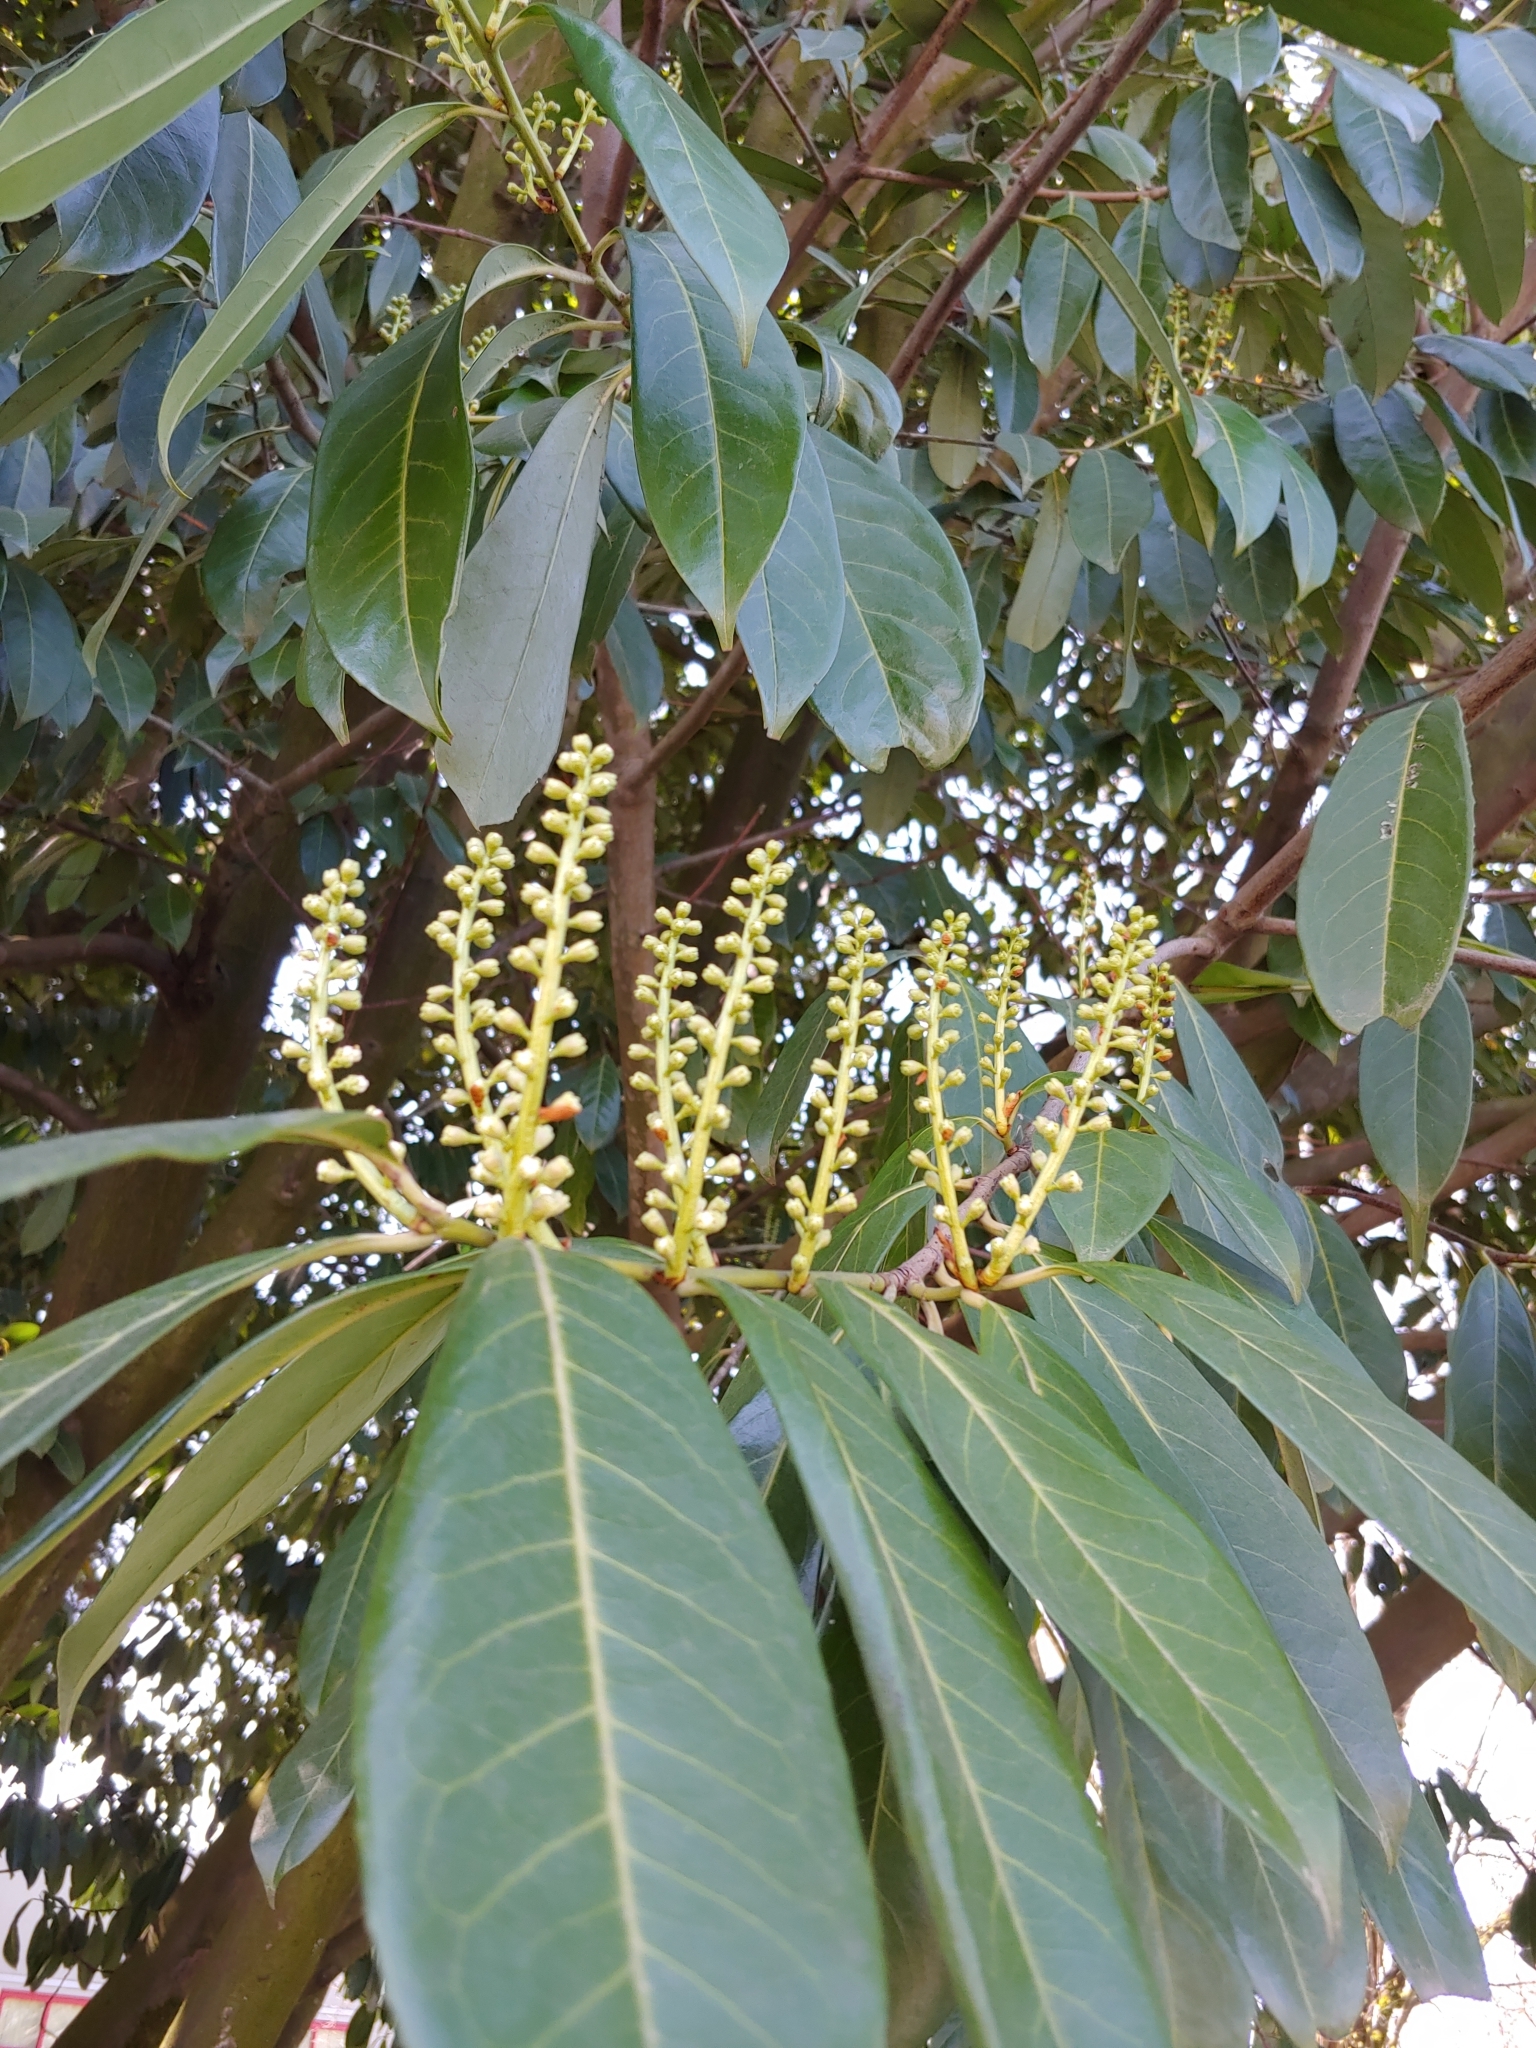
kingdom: Plantae
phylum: Tracheophyta
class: Magnoliopsida
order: Rosales
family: Rosaceae
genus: Prunus
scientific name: Prunus laurocerasus
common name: Cherry laurel
